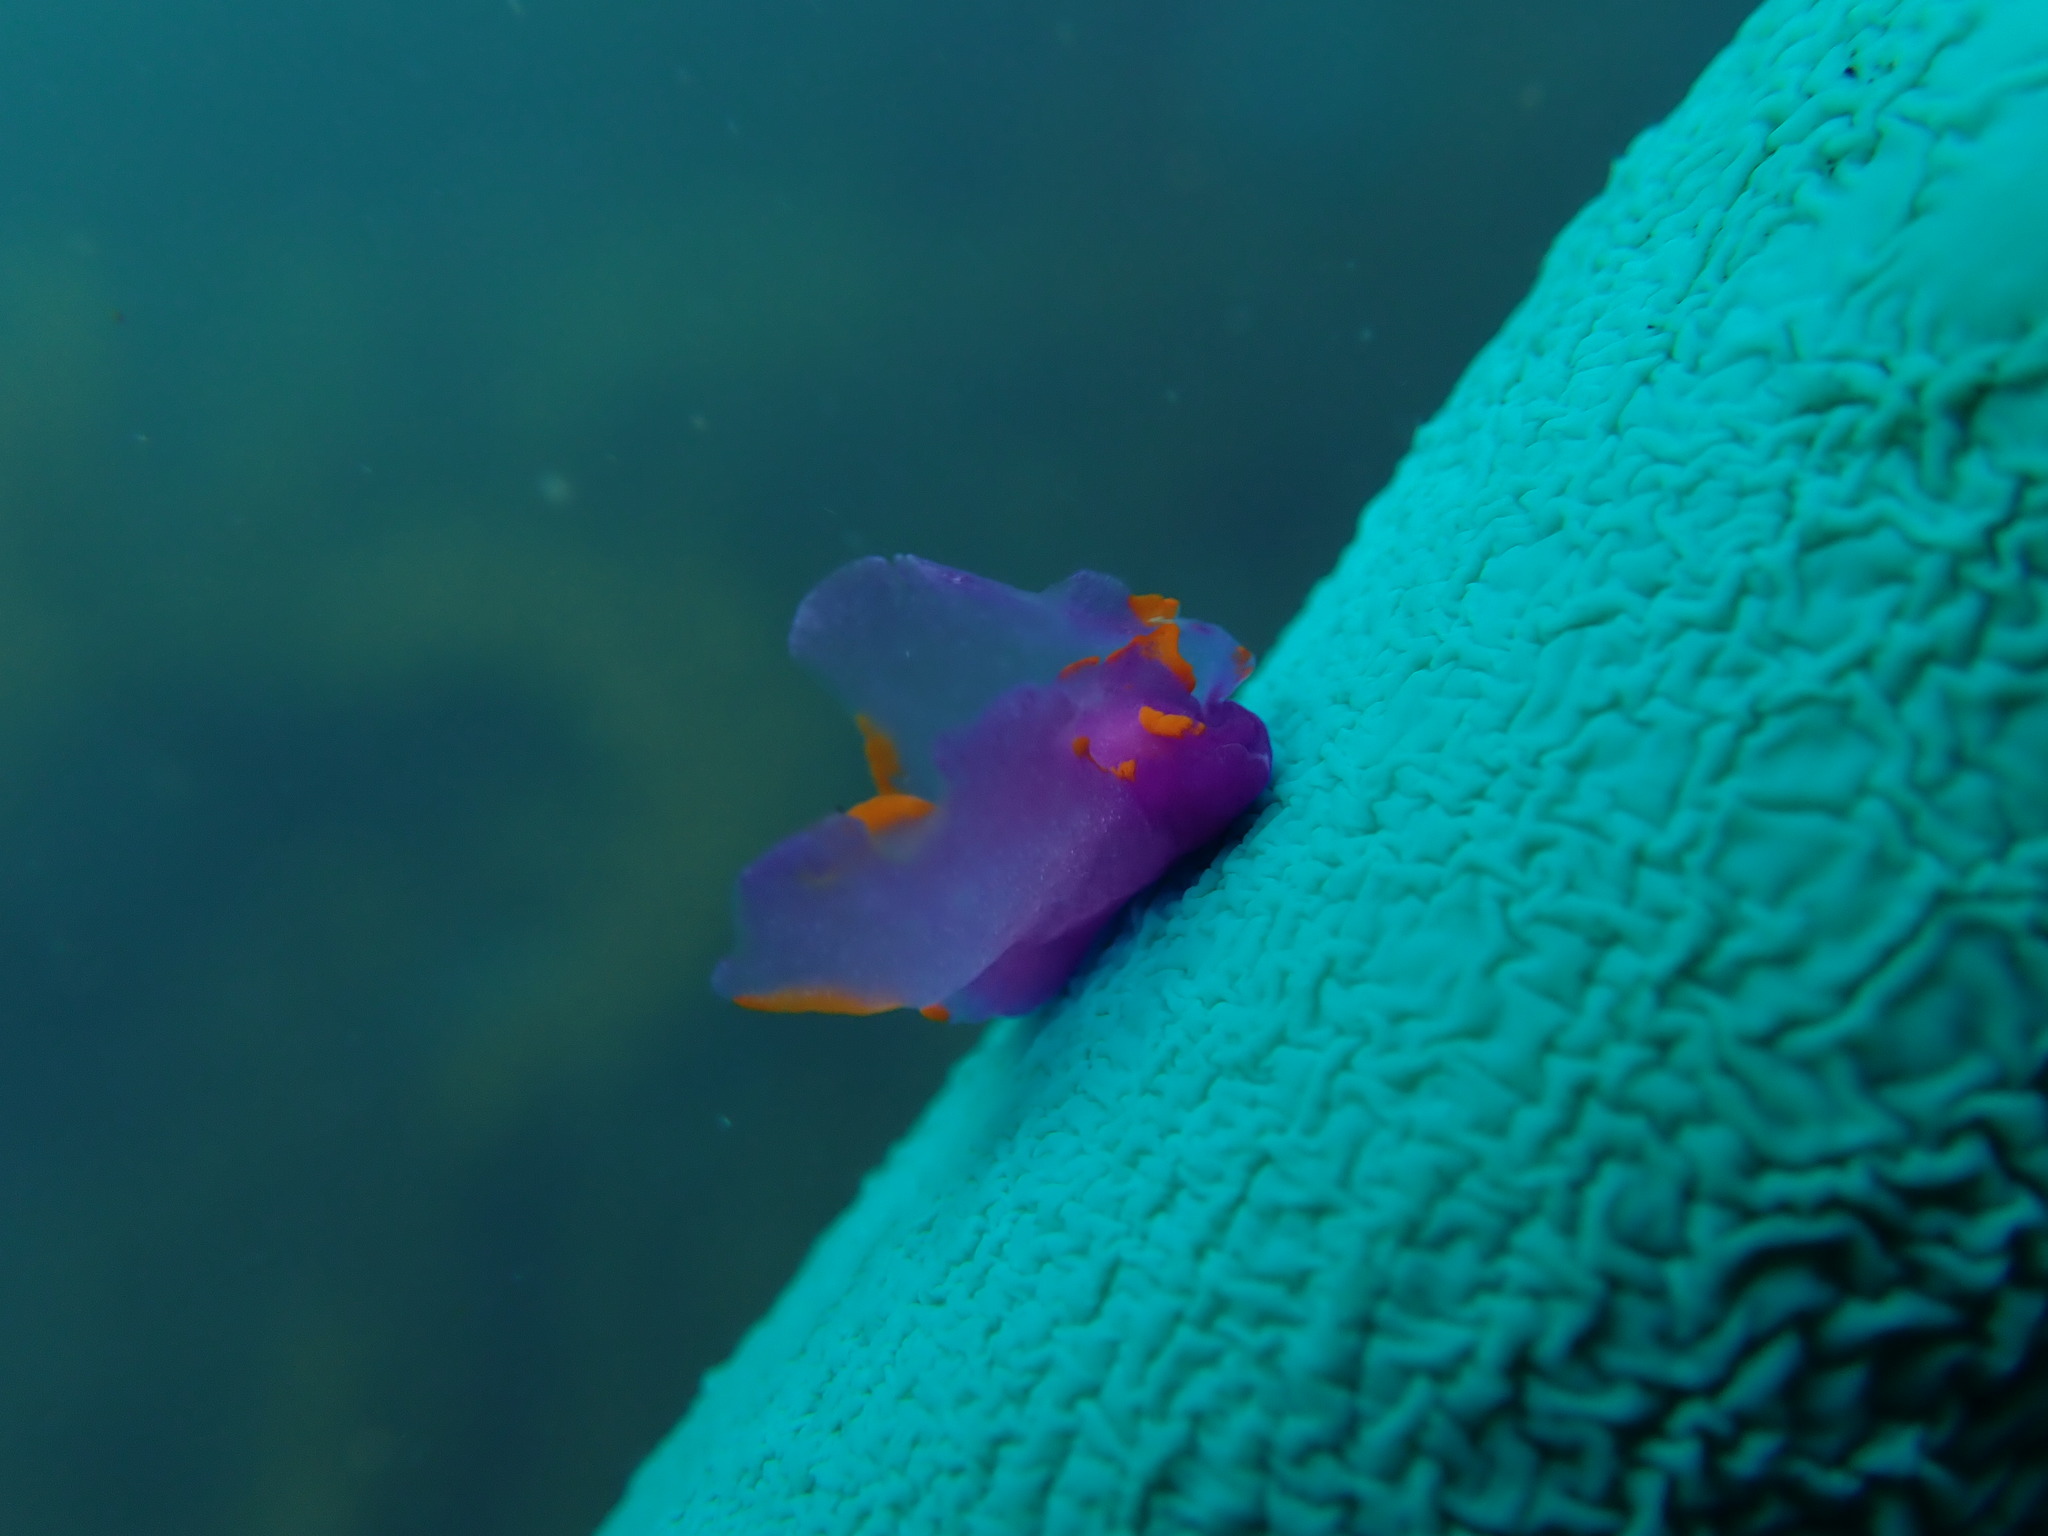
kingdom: Animalia
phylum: Mollusca
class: Gastropoda
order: Cephalaspidea
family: Gastropteridae
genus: Sagaminopteron
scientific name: Sagaminopteron ornatum
